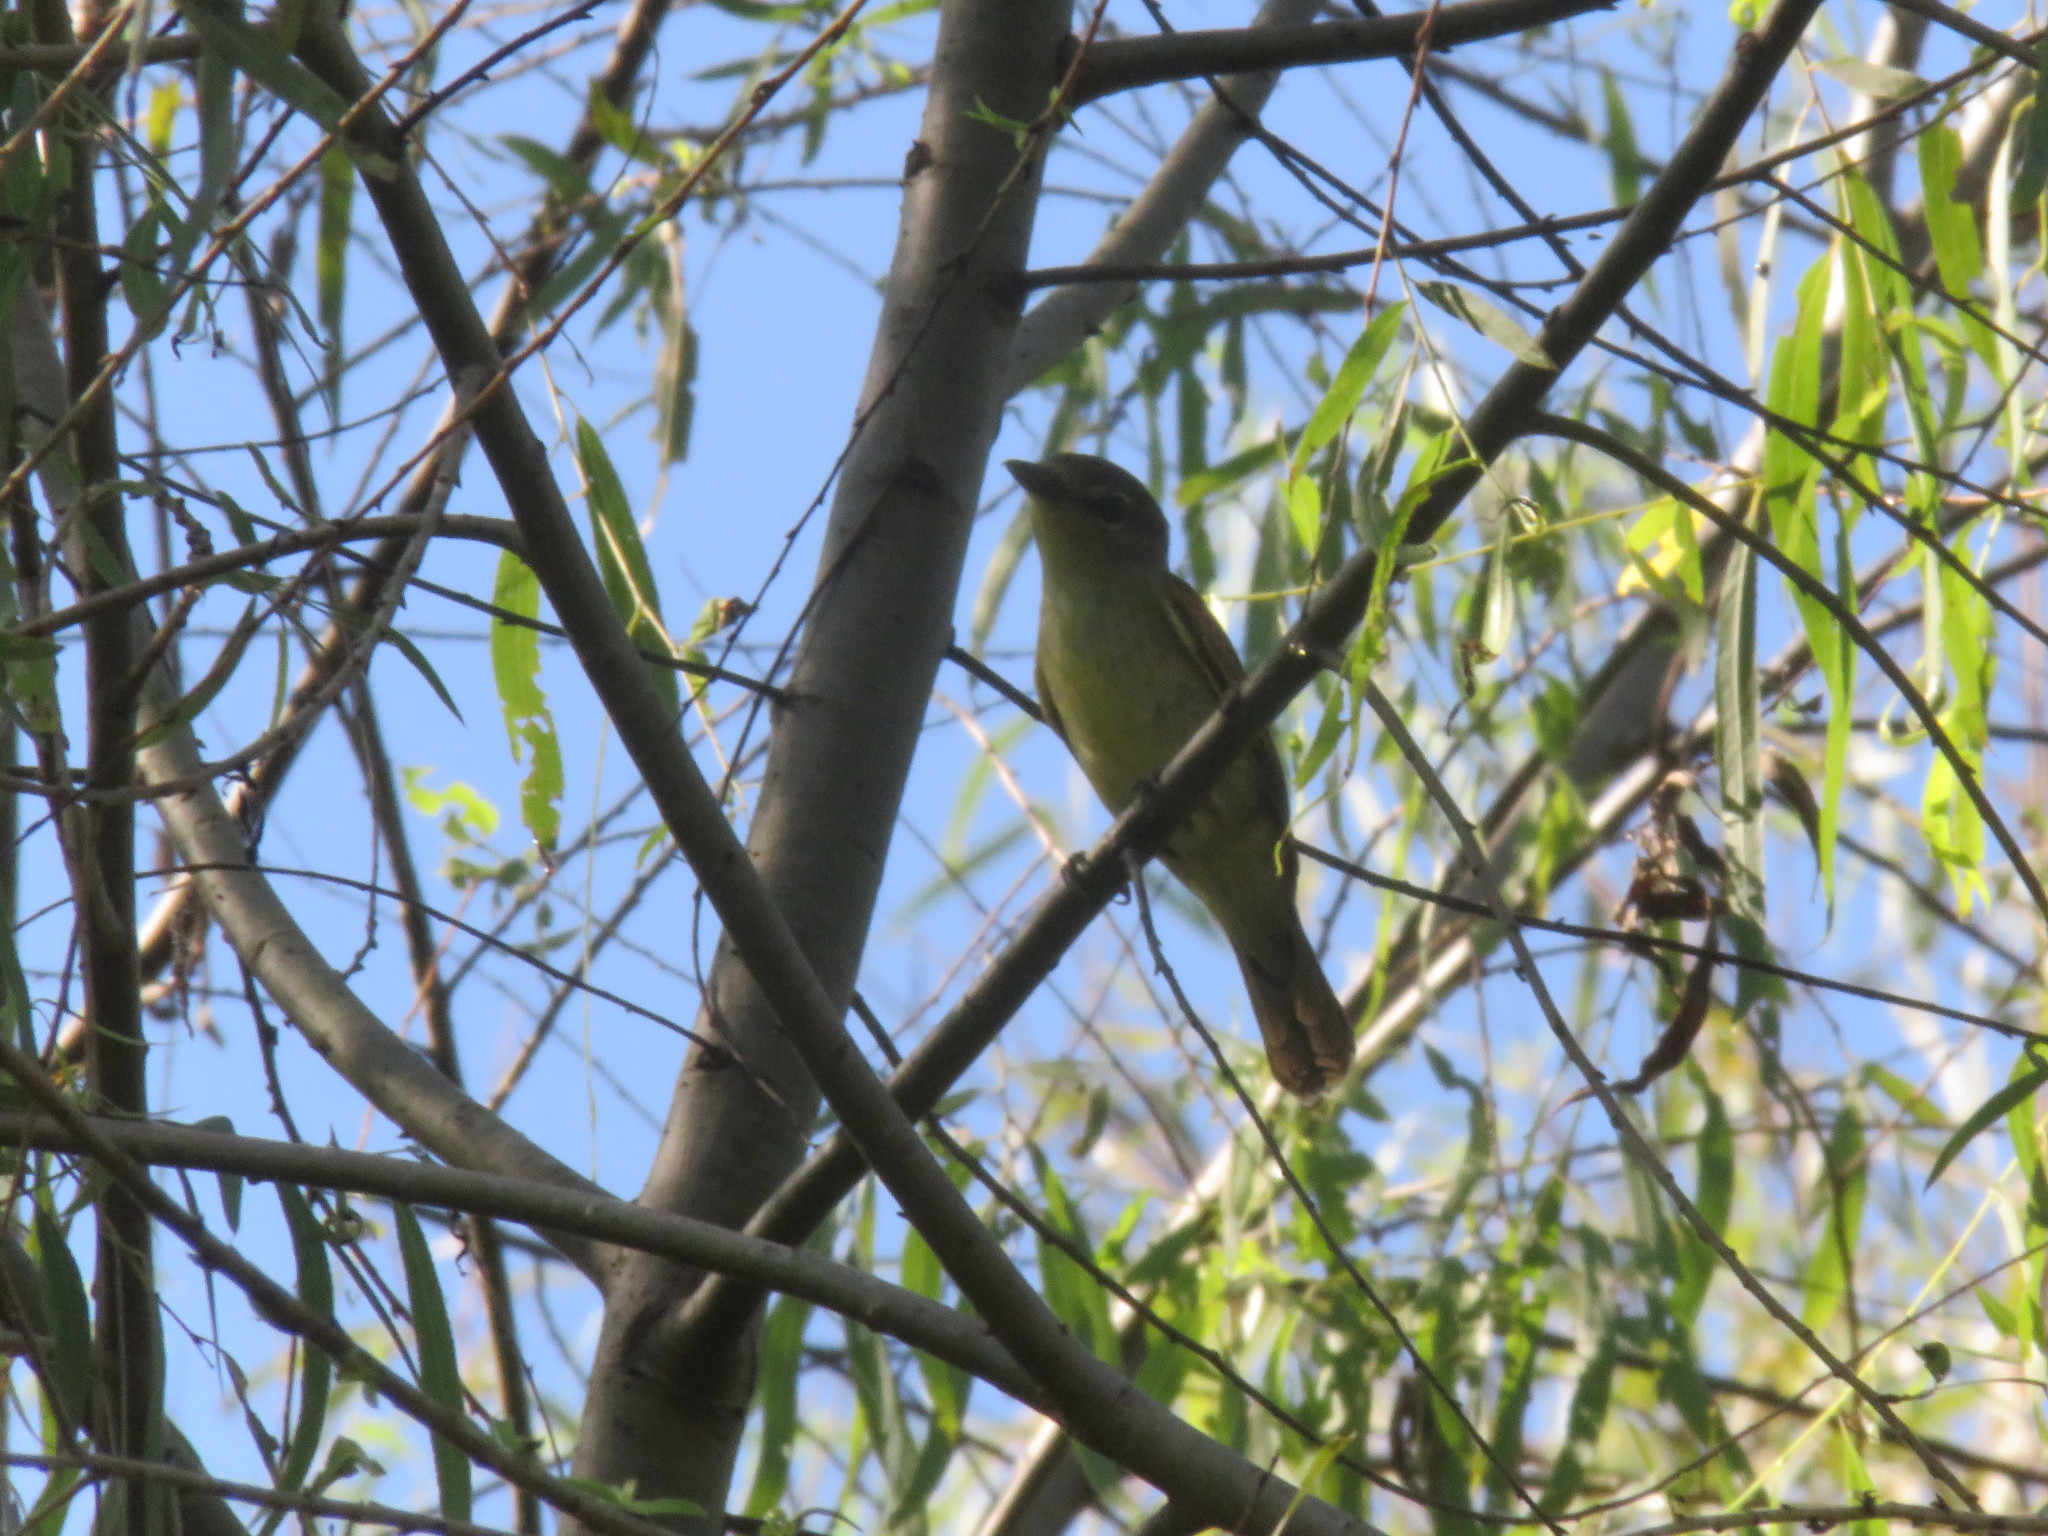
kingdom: Animalia
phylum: Chordata
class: Aves
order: Passeriformes
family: Cotingidae
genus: Pachyramphus
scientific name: Pachyramphus polychopterus
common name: White-winged becard
